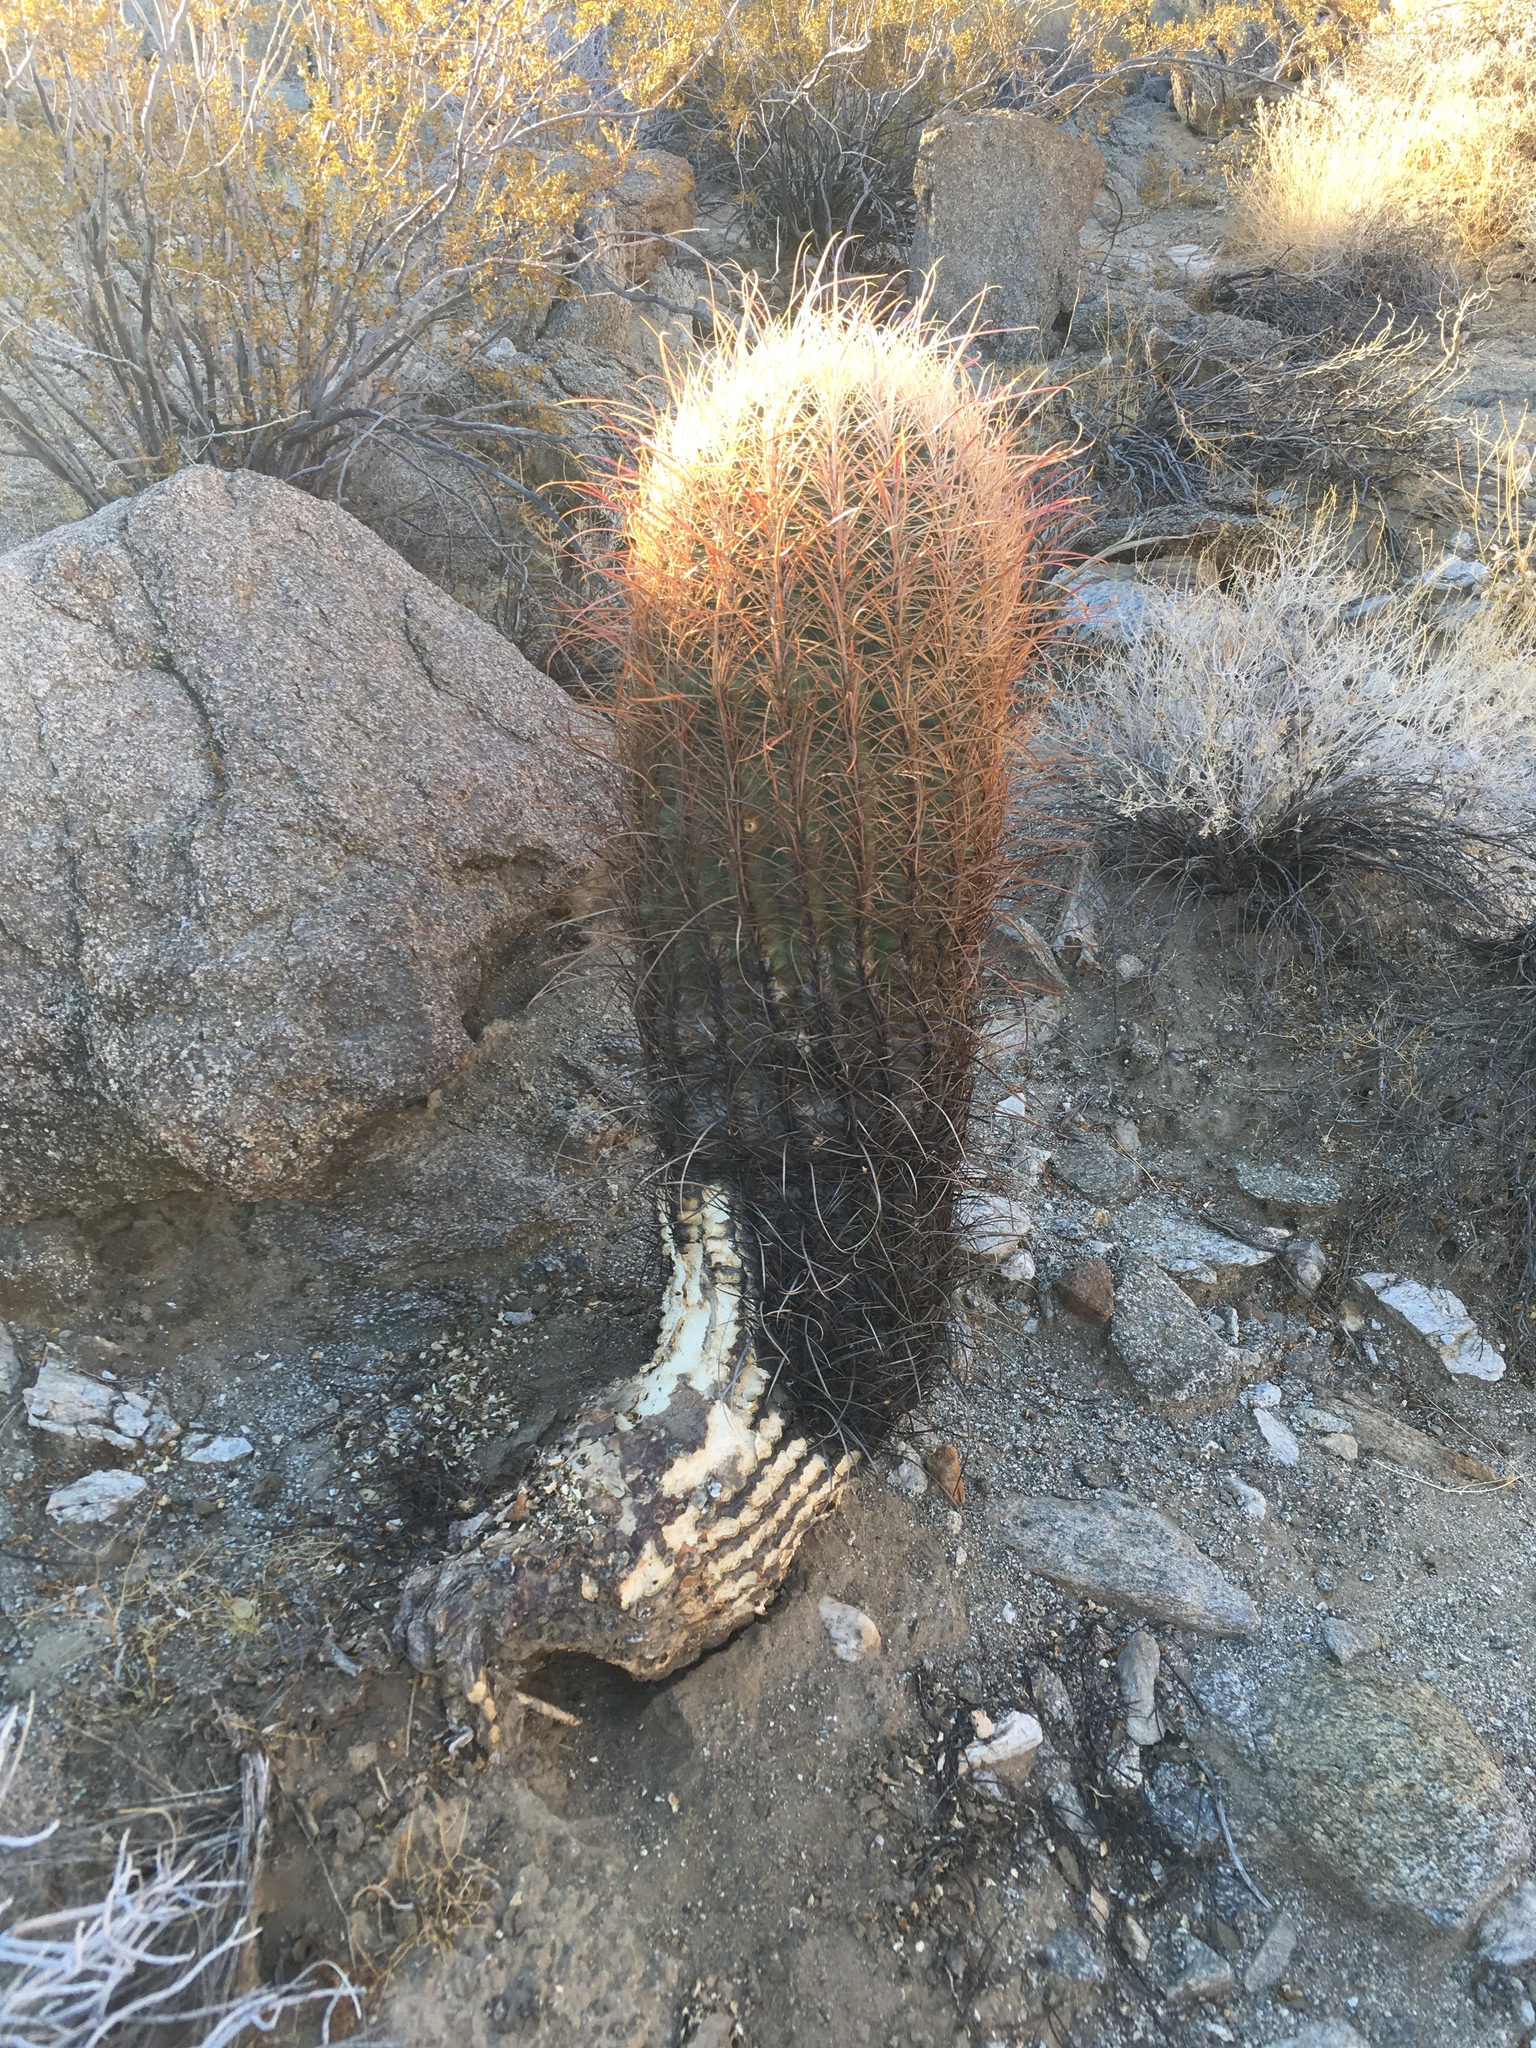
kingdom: Plantae
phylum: Tracheophyta
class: Magnoliopsida
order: Caryophyllales
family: Cactaceae
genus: Ferocactus
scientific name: Ferocactus cylindraceus
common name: California barrel cactus
